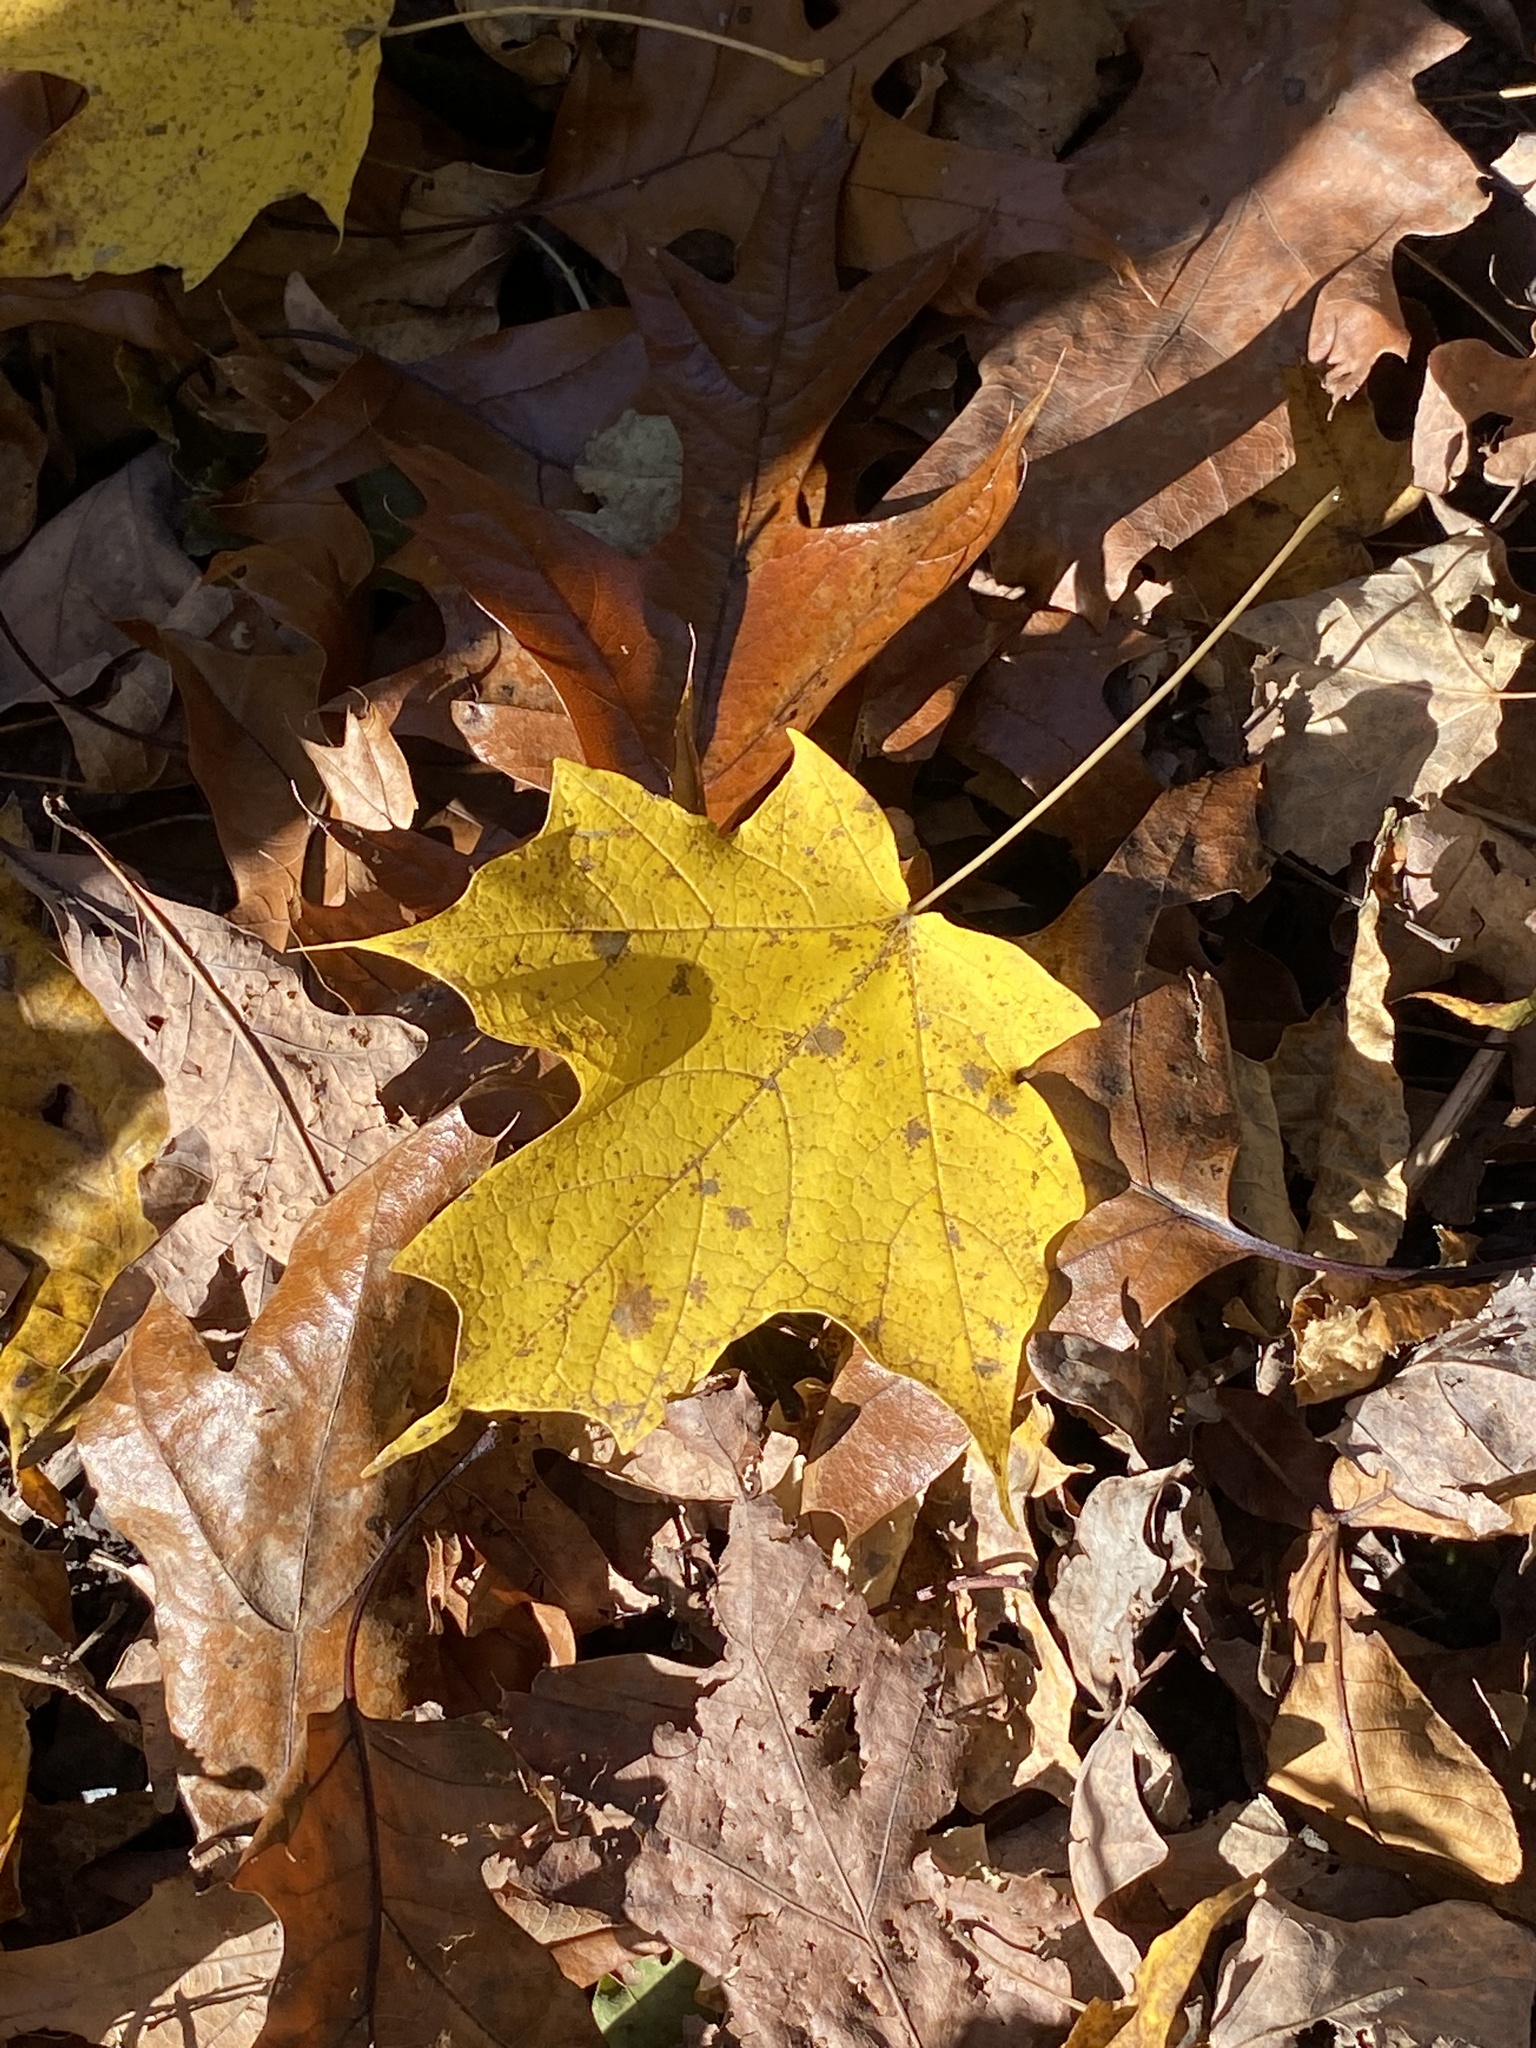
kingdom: Plantae
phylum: Tracheophyta
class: Magnoliopsida
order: Sapindales
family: Sapindaceae
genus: Acer
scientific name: Acer saccharum
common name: Sugar maple
